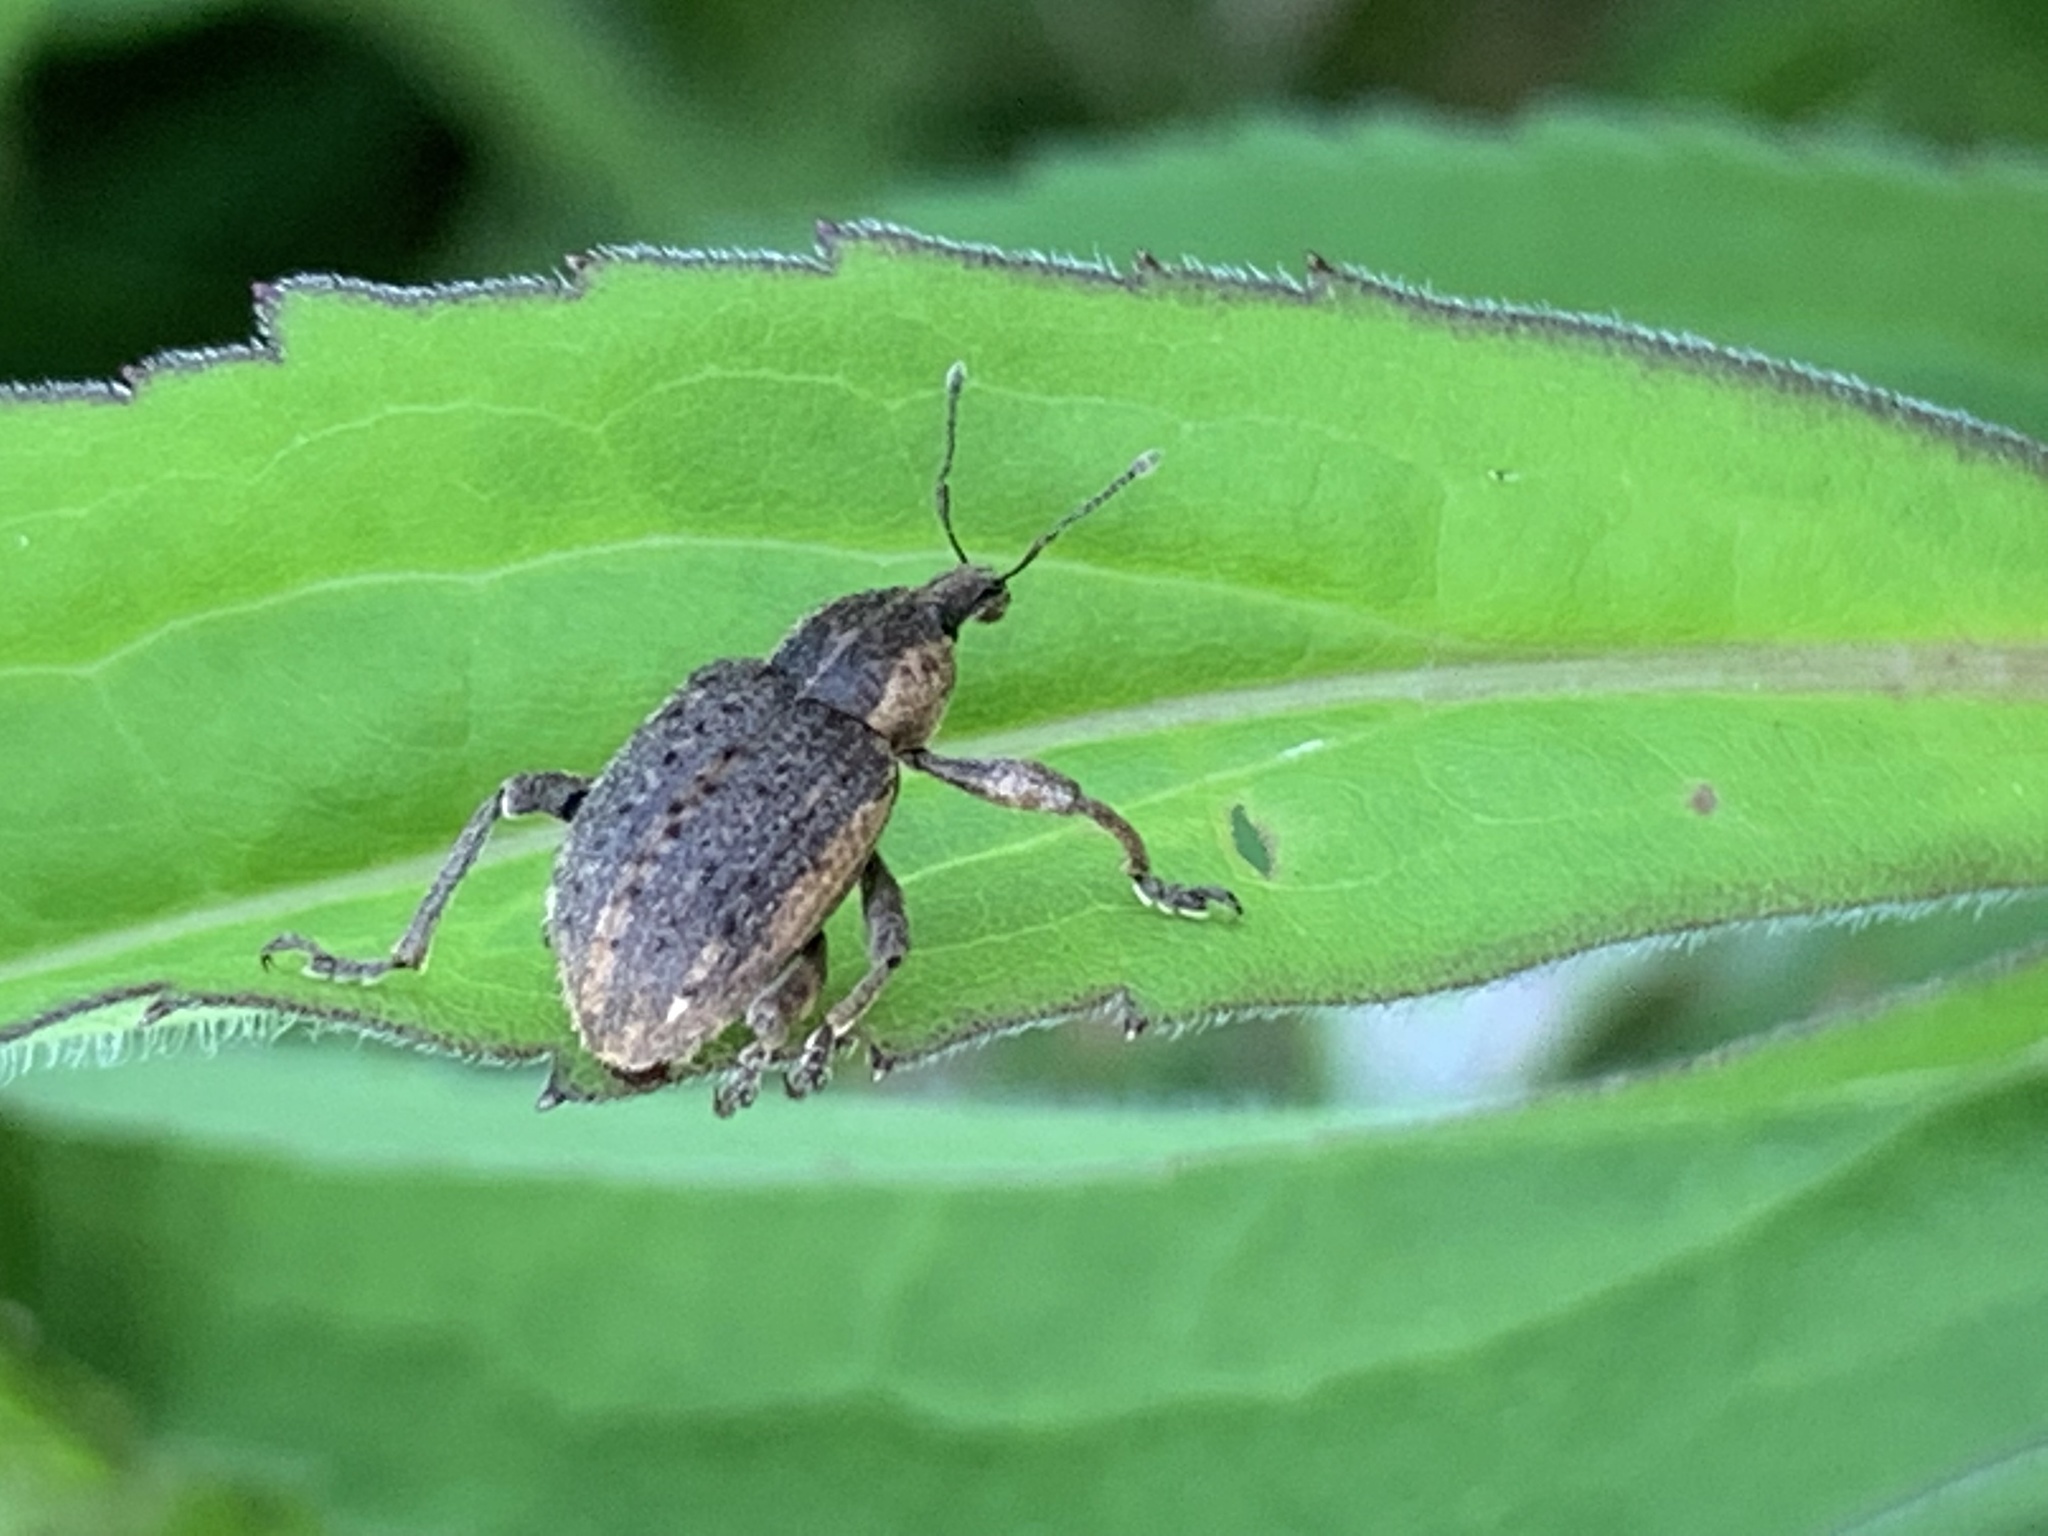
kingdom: Animalia
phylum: Arthropoda
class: Insecta
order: Coleoptera
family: Curculionidae
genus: Brachypera
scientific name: Brachypera zoilus
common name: Clover leaf weevil
